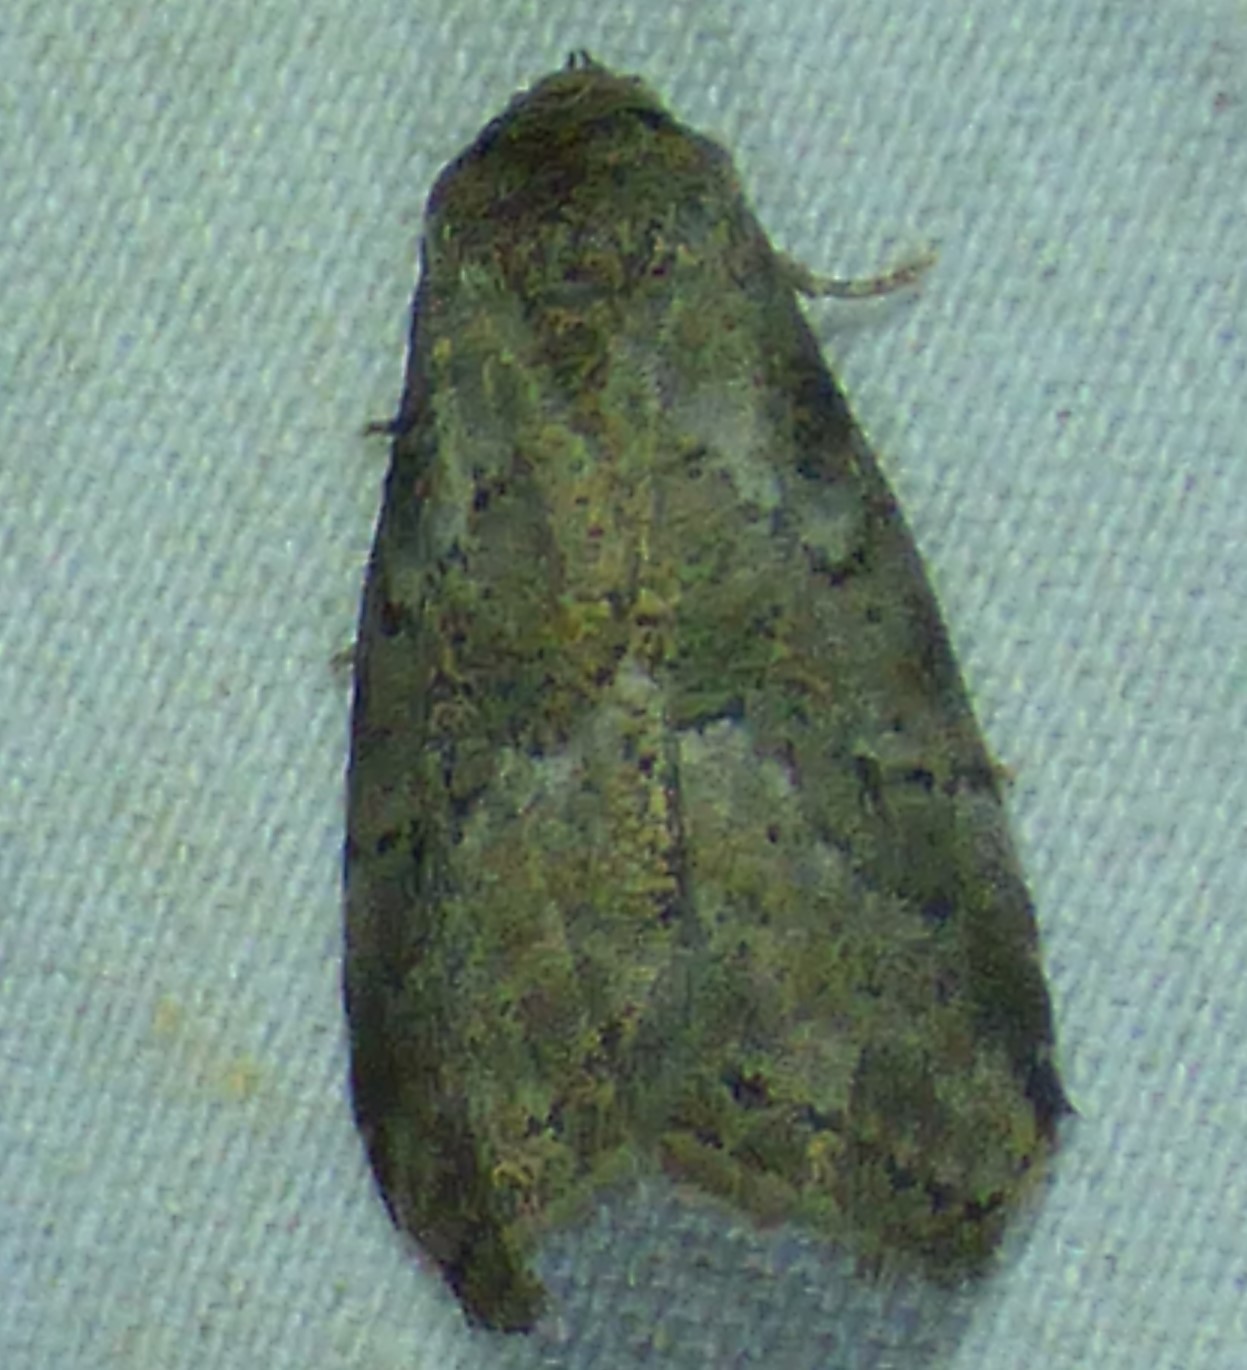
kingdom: Animalia
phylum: Arthropoda
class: Insecta
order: Lepidoptera
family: Erebidae
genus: Hyperstrotia
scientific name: Hyperstrotia nana
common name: White-lined graylet
